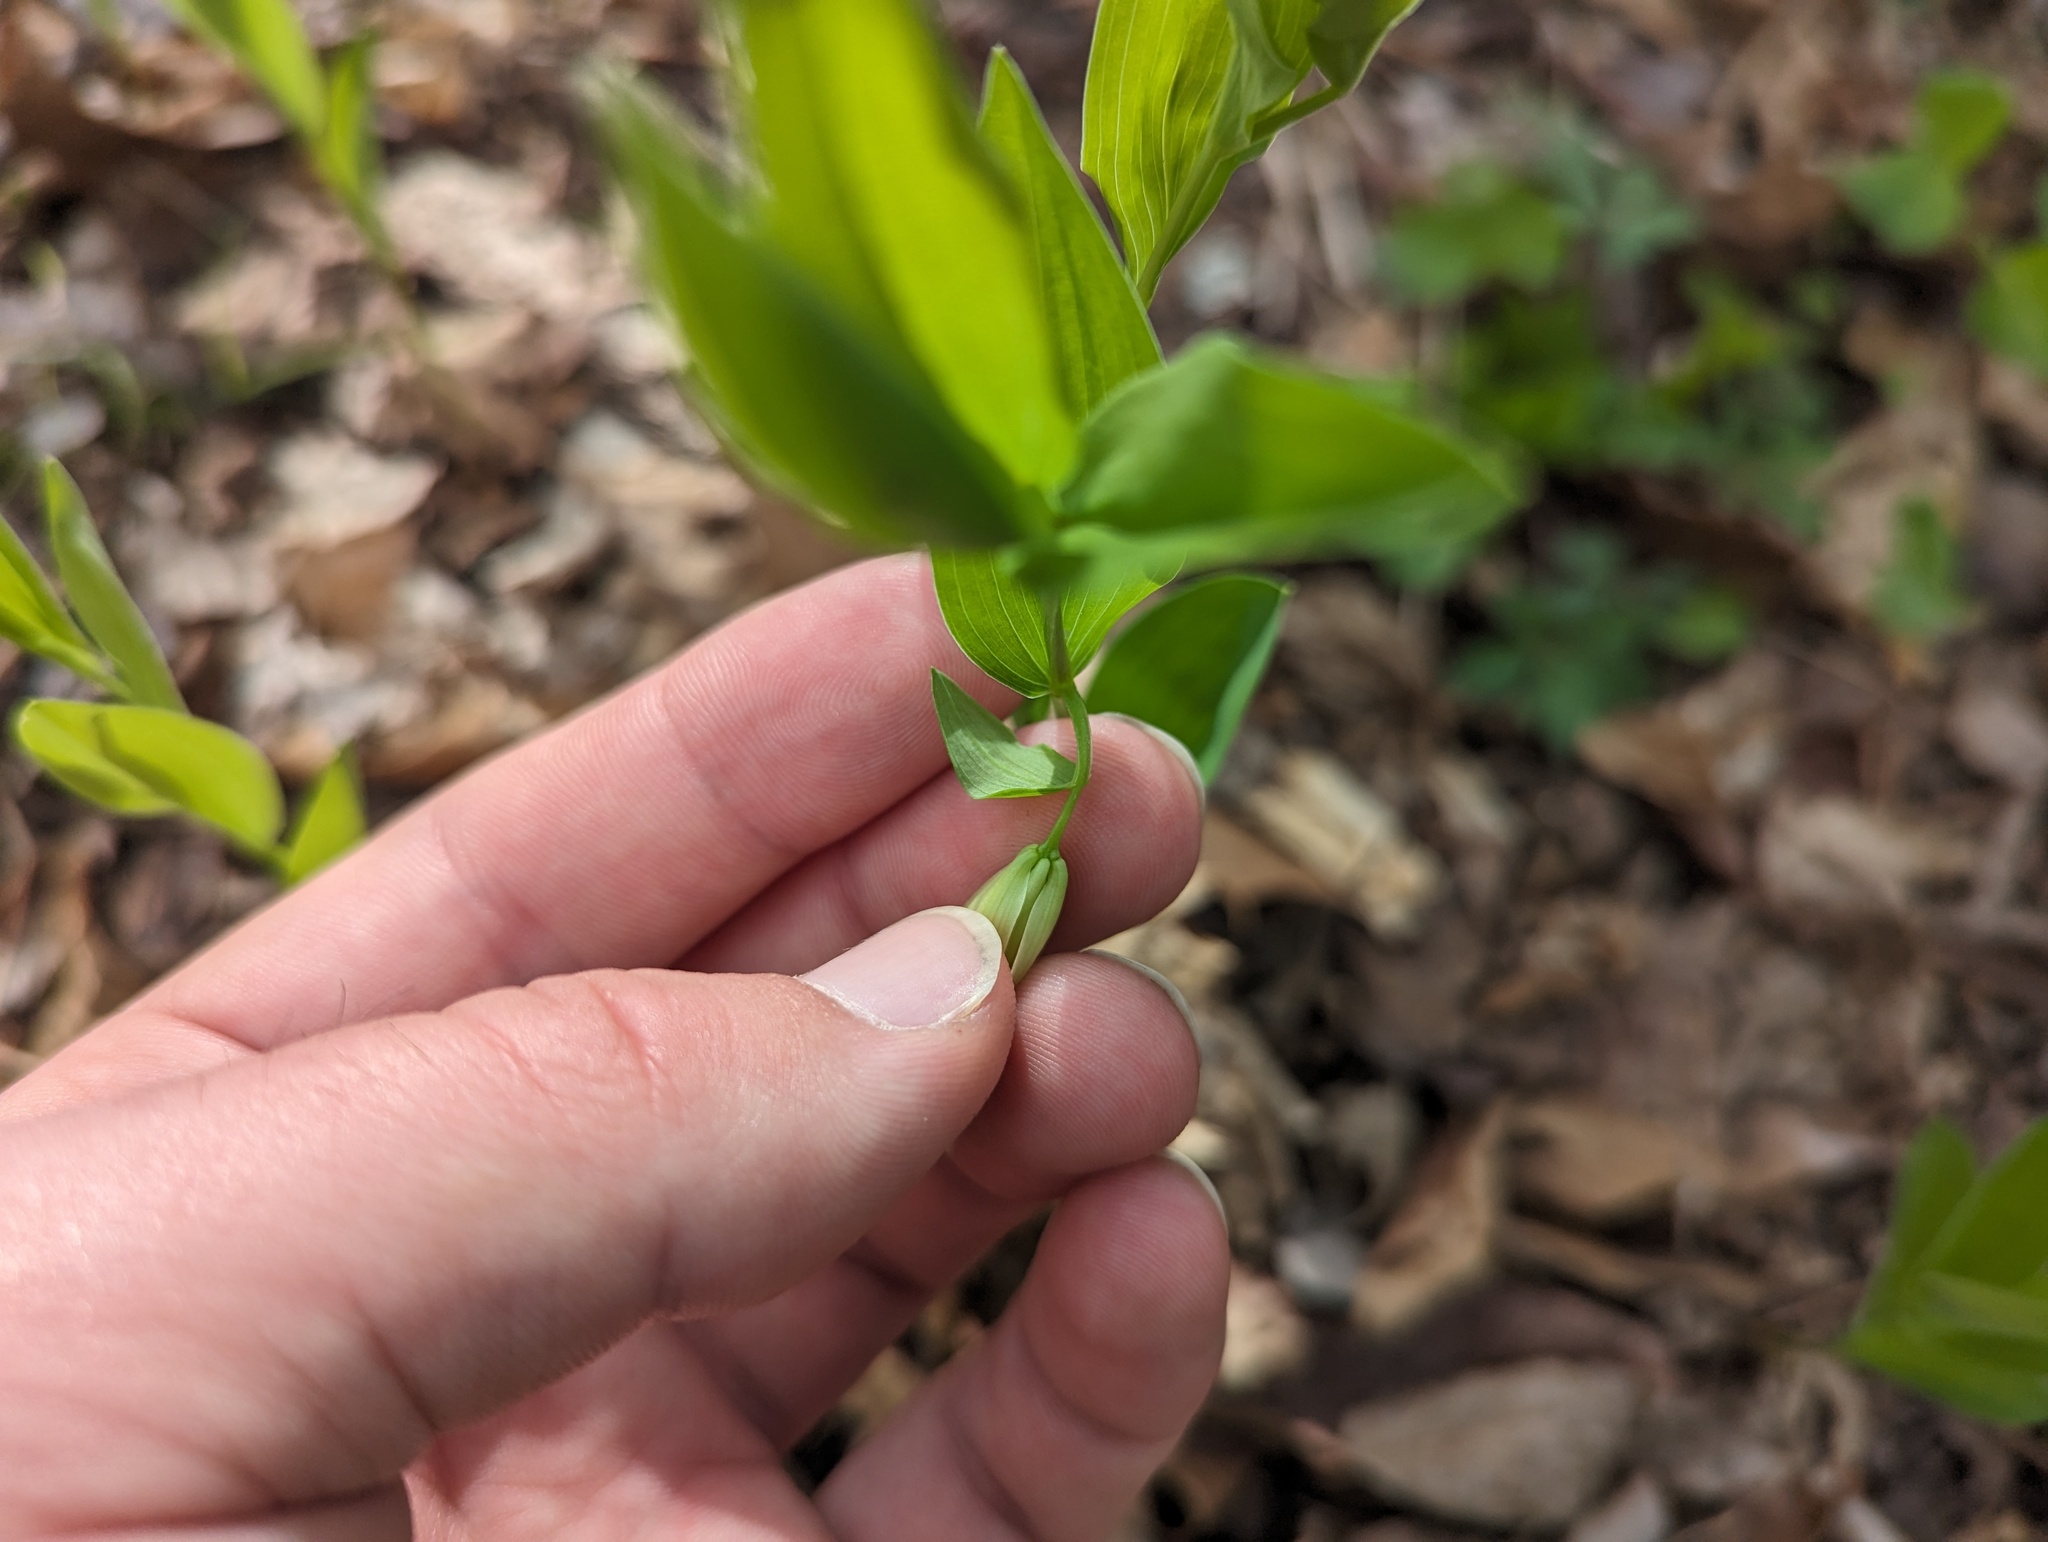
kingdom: Plantae
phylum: Tracheophyta
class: Liliopsida
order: Liliales
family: Colchicaceae
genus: Uvularia
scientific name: Uvularia floridana
